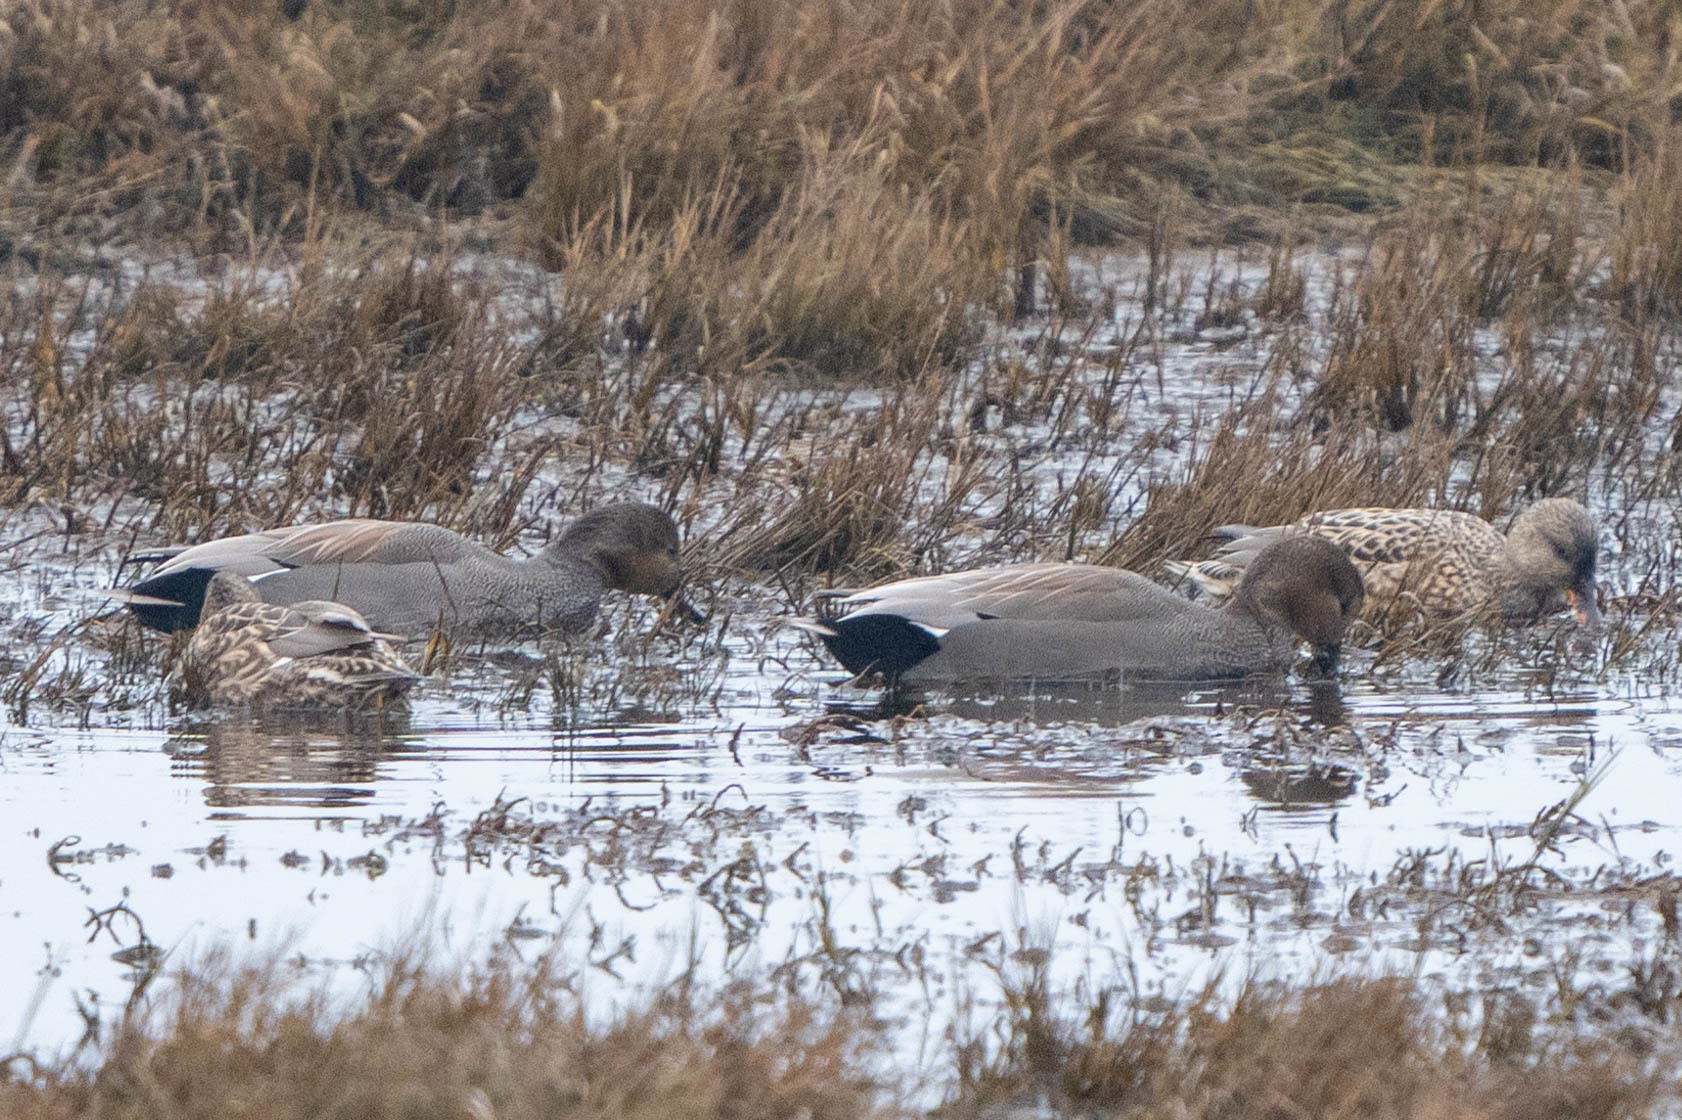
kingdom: Animalia
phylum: Chordata
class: Aves
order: Anseriformes
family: Anatidae
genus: Mareca
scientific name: Mareca strepera
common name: Gadwall
